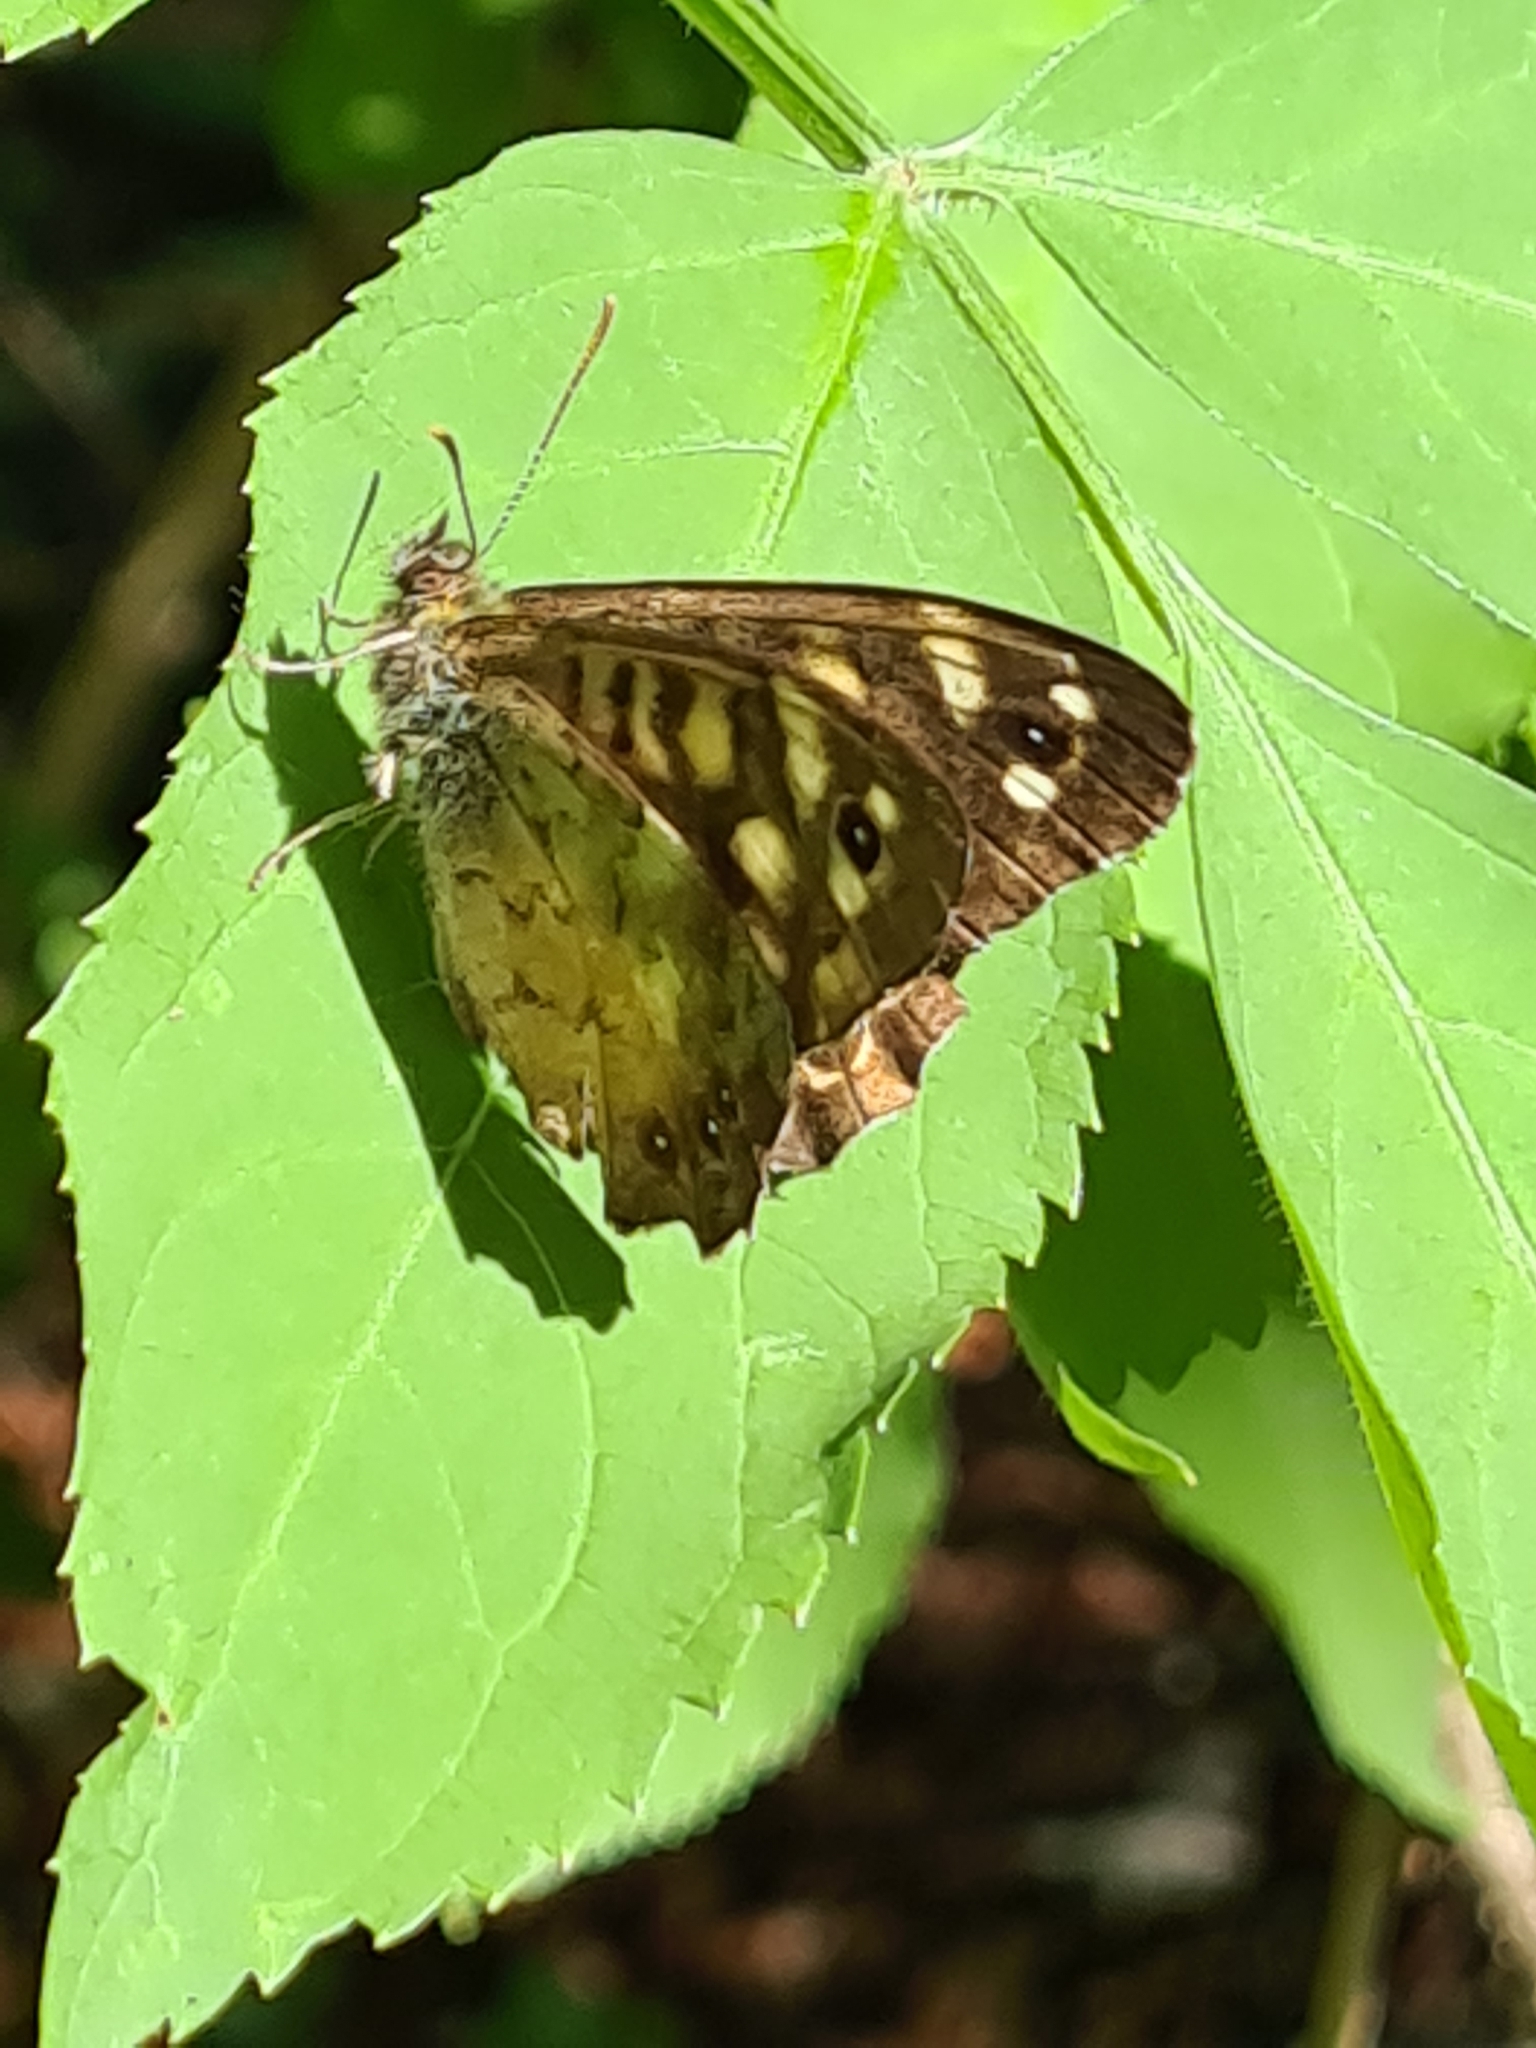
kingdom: Animalia
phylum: Arthropoda
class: Insecta
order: Lepidoptera
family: Nymphalidae
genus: Pararge
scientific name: Pararge aegeria
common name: Speckled wood
